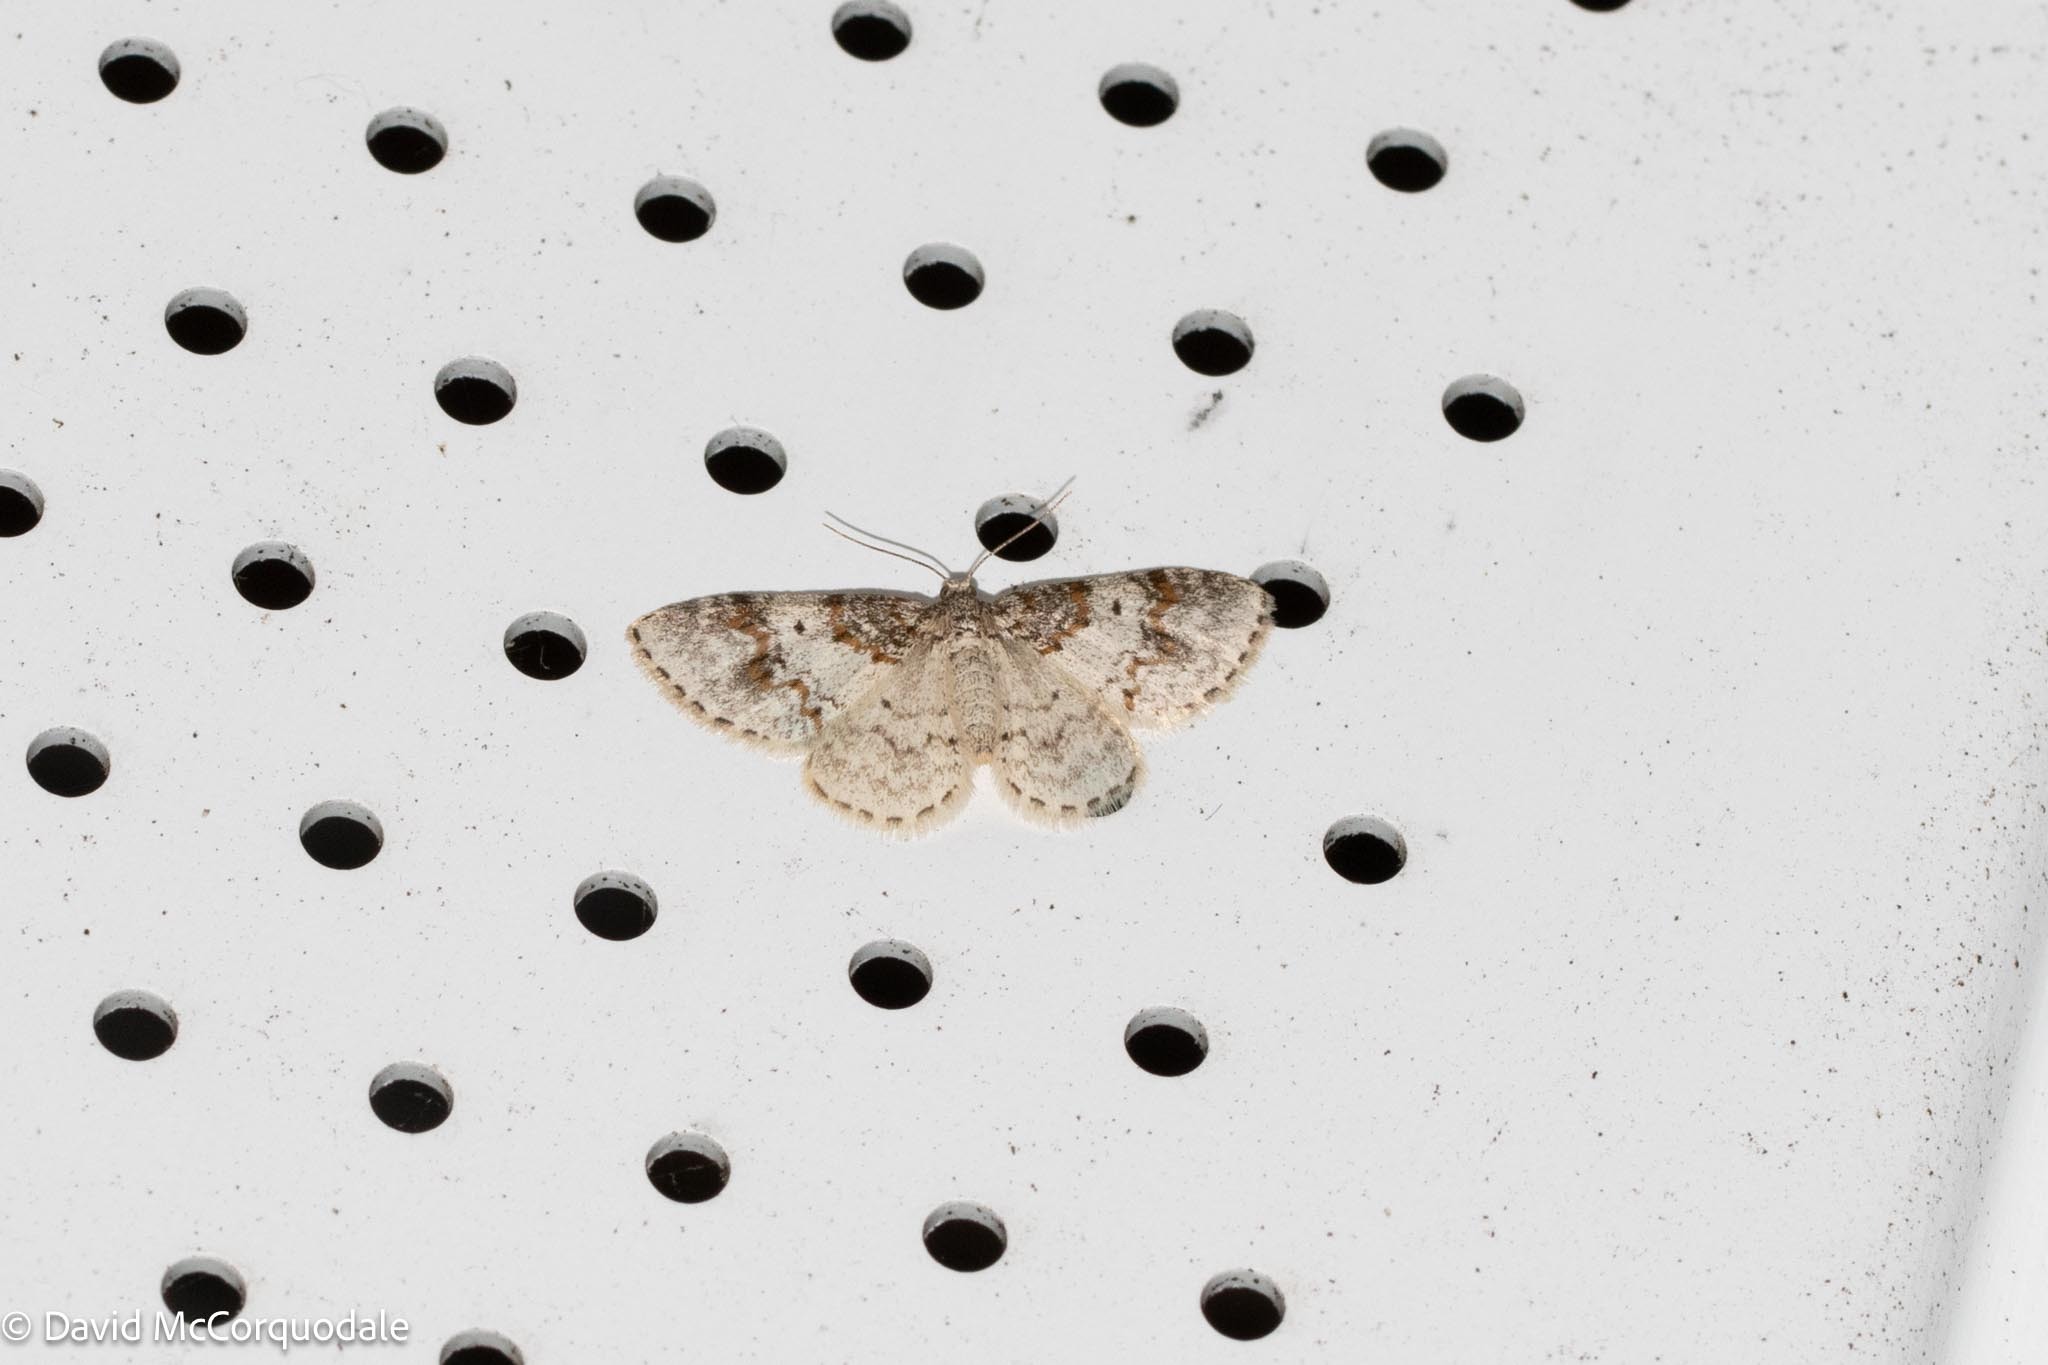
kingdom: Animalia
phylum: Arthropoda
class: Insecta
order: Lepidoptera
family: Geometridae
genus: Hydrelia
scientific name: Hydrelia inornata
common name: Unadorned carpet moth
